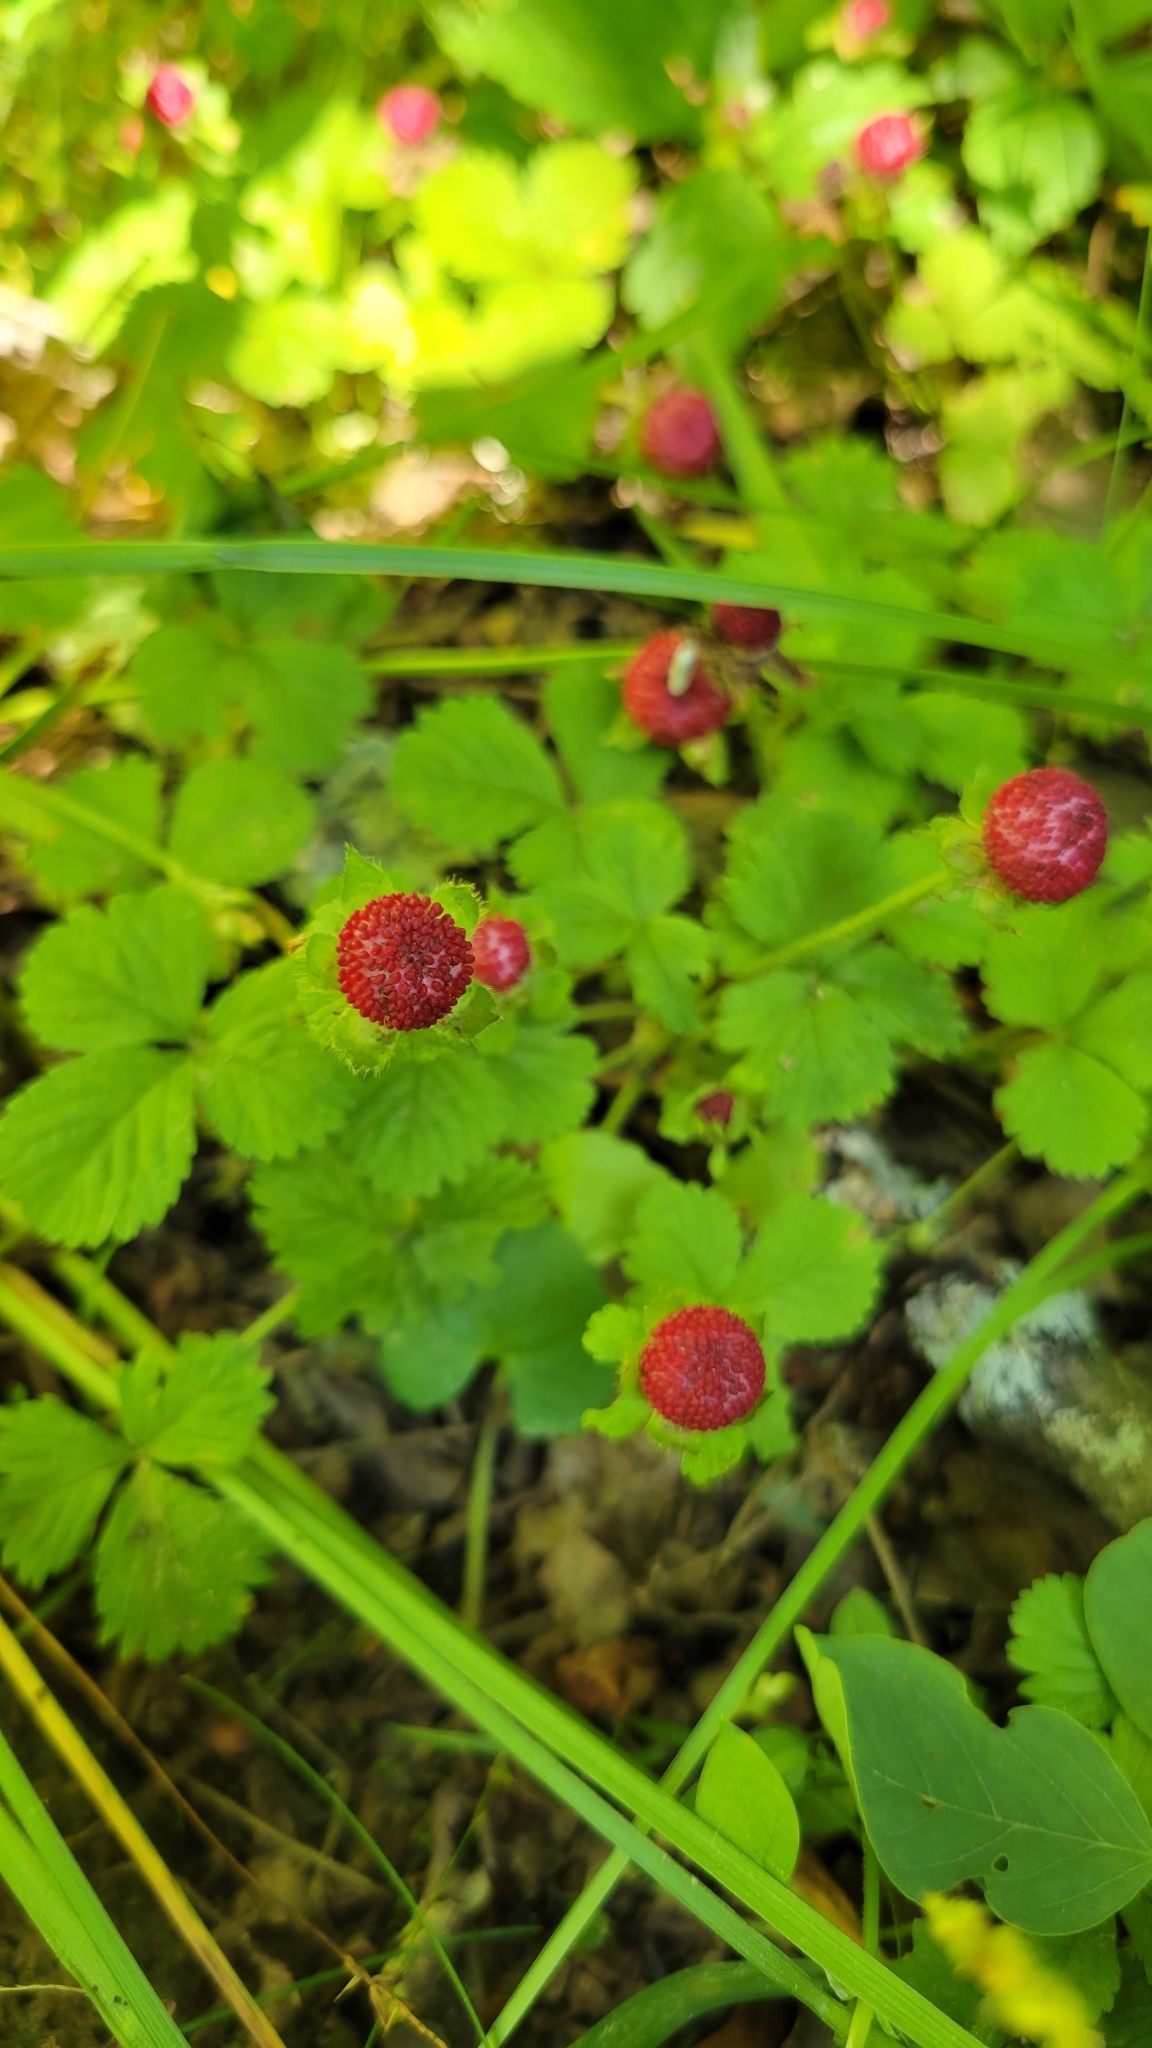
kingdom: Plantae
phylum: Tracheophyta
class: Magnoliopsida
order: Rosales
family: Rosaceae
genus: Potentilla
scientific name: Potentilla indica
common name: Yellow-flowered strawberry
